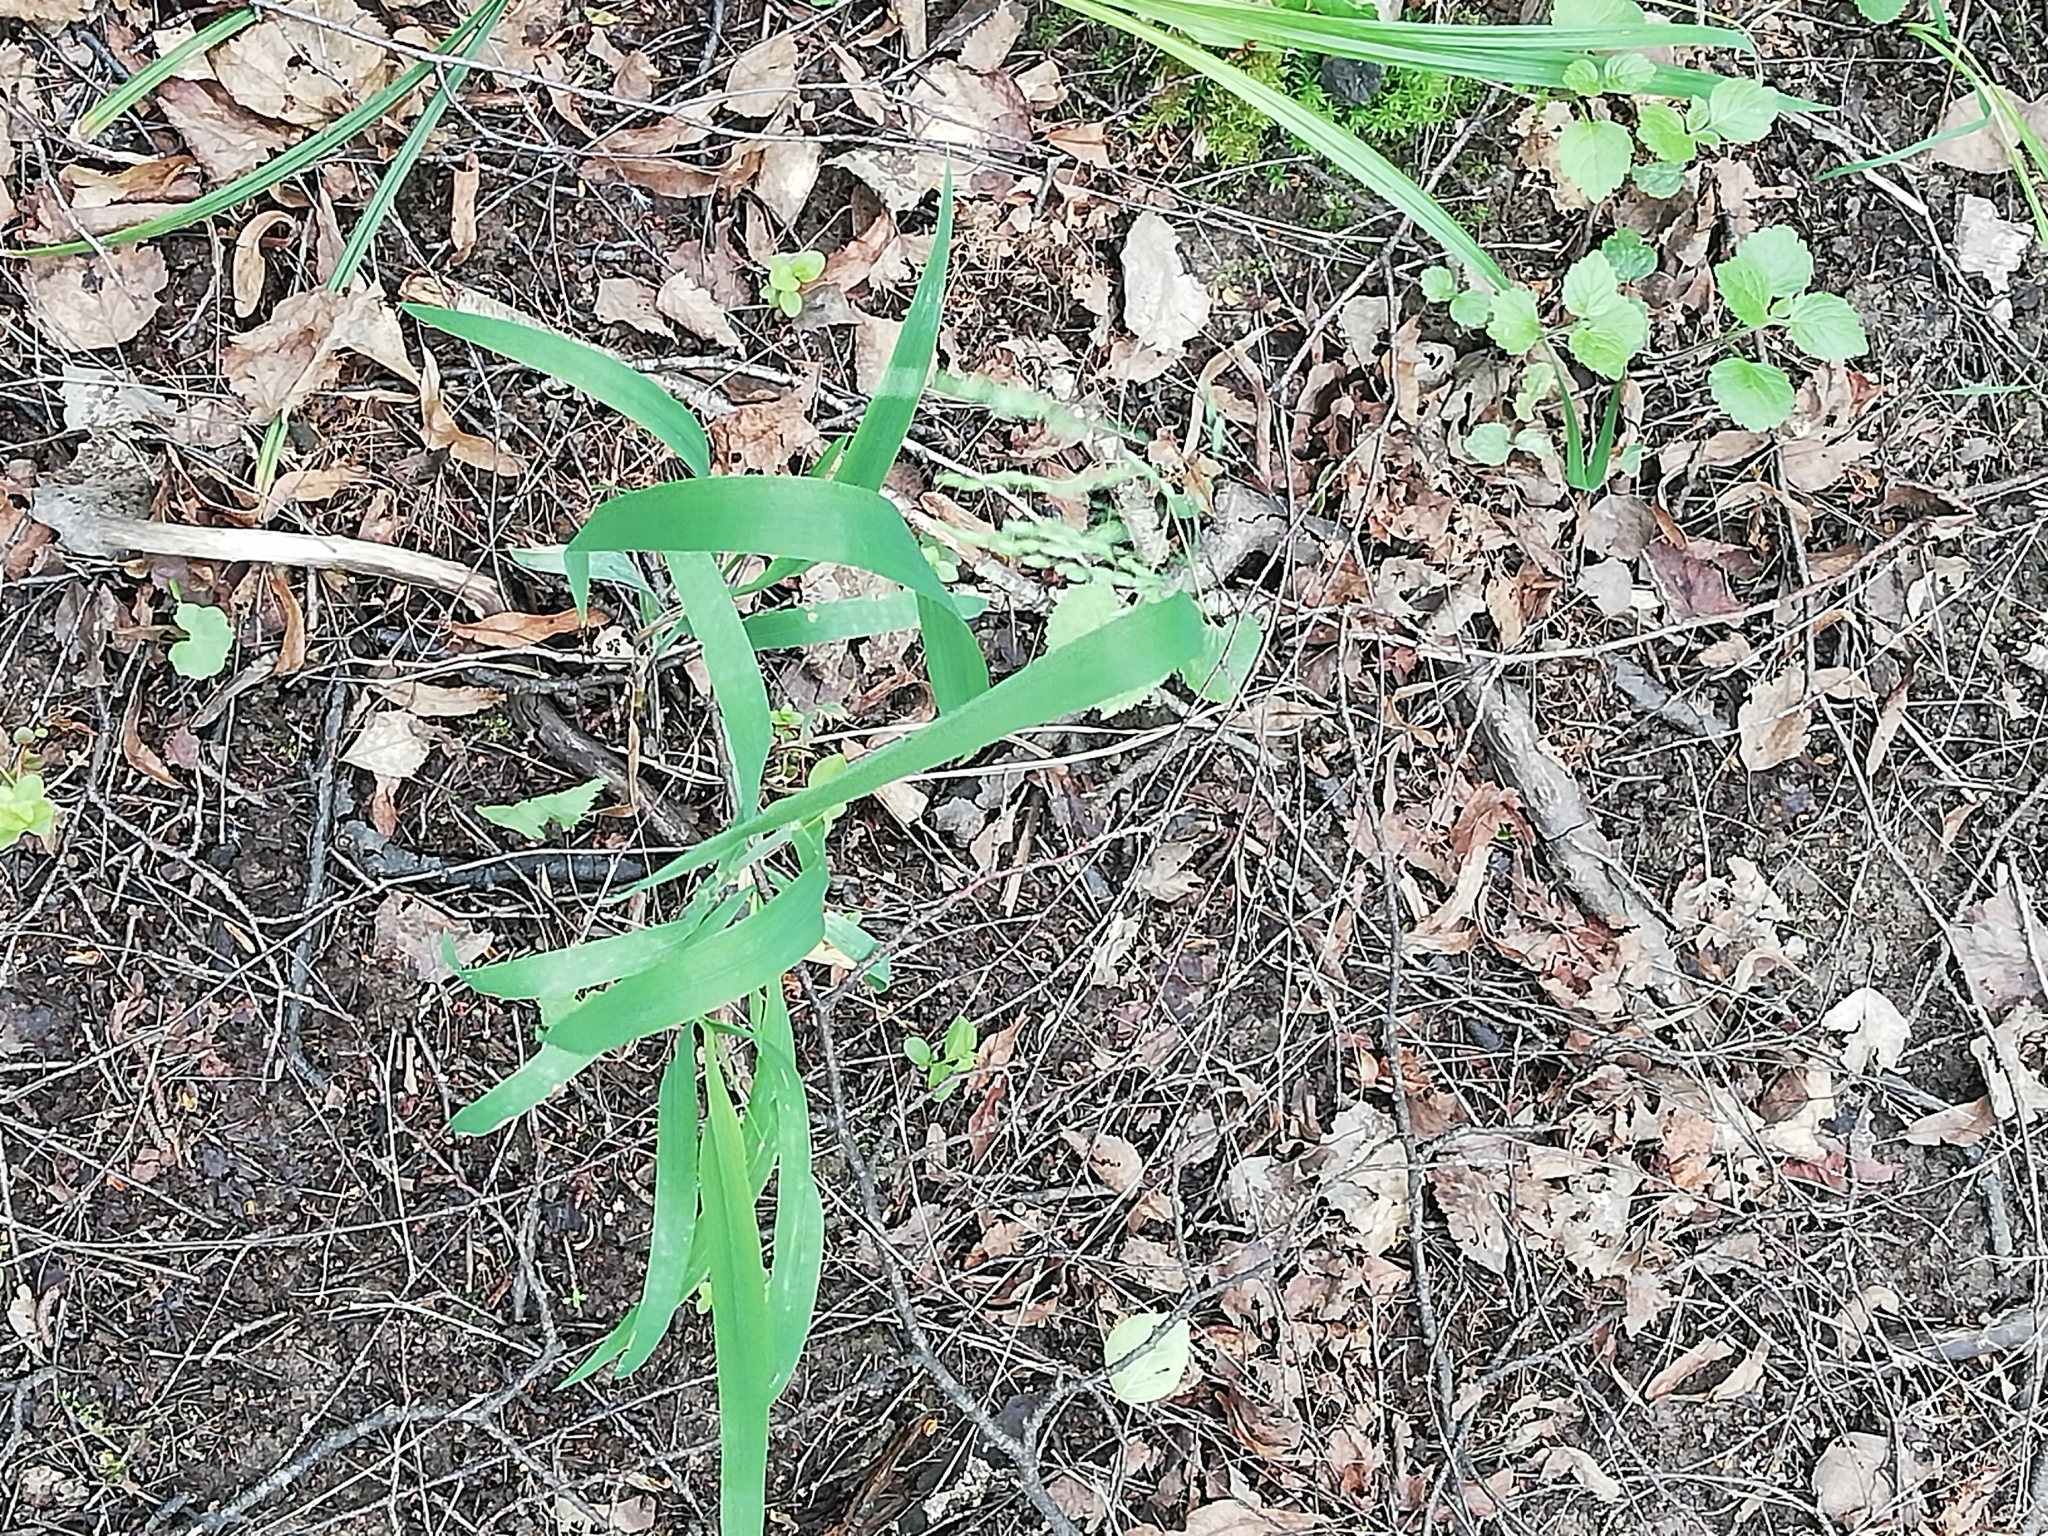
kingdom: Plantae
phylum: Tracheophyta
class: Liliopsida
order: Poales
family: Poaceae
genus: Milium
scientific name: Milium effusum
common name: Wood millet
